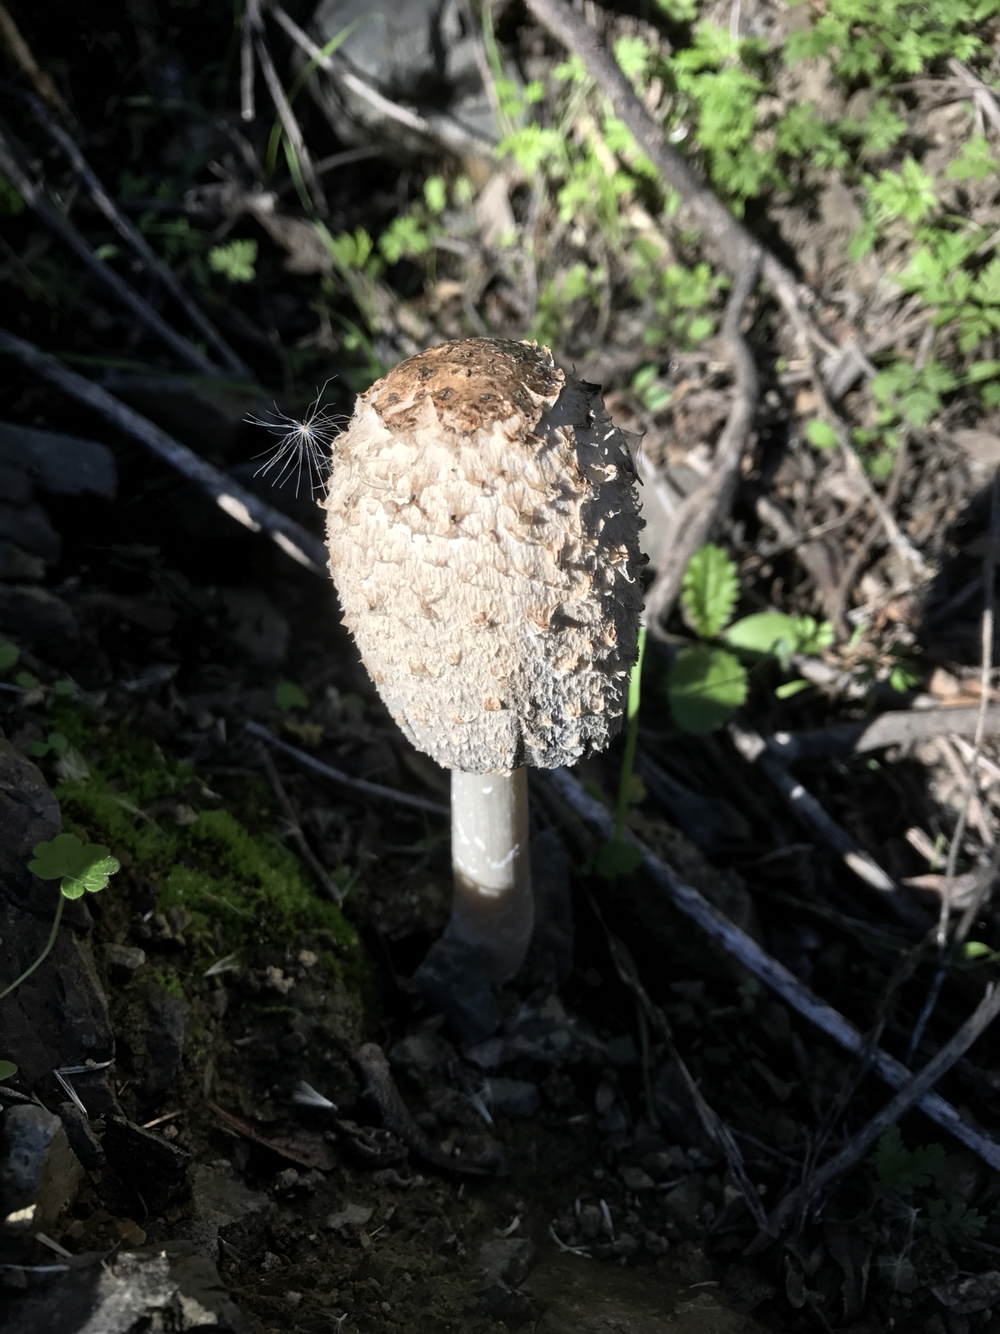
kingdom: Fungi
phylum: Basidiomycota
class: Agaricomycetes
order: Agaricales
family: Agaricaceae
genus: Coprinus
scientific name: Coprinus comatus
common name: Lawyer's wig
